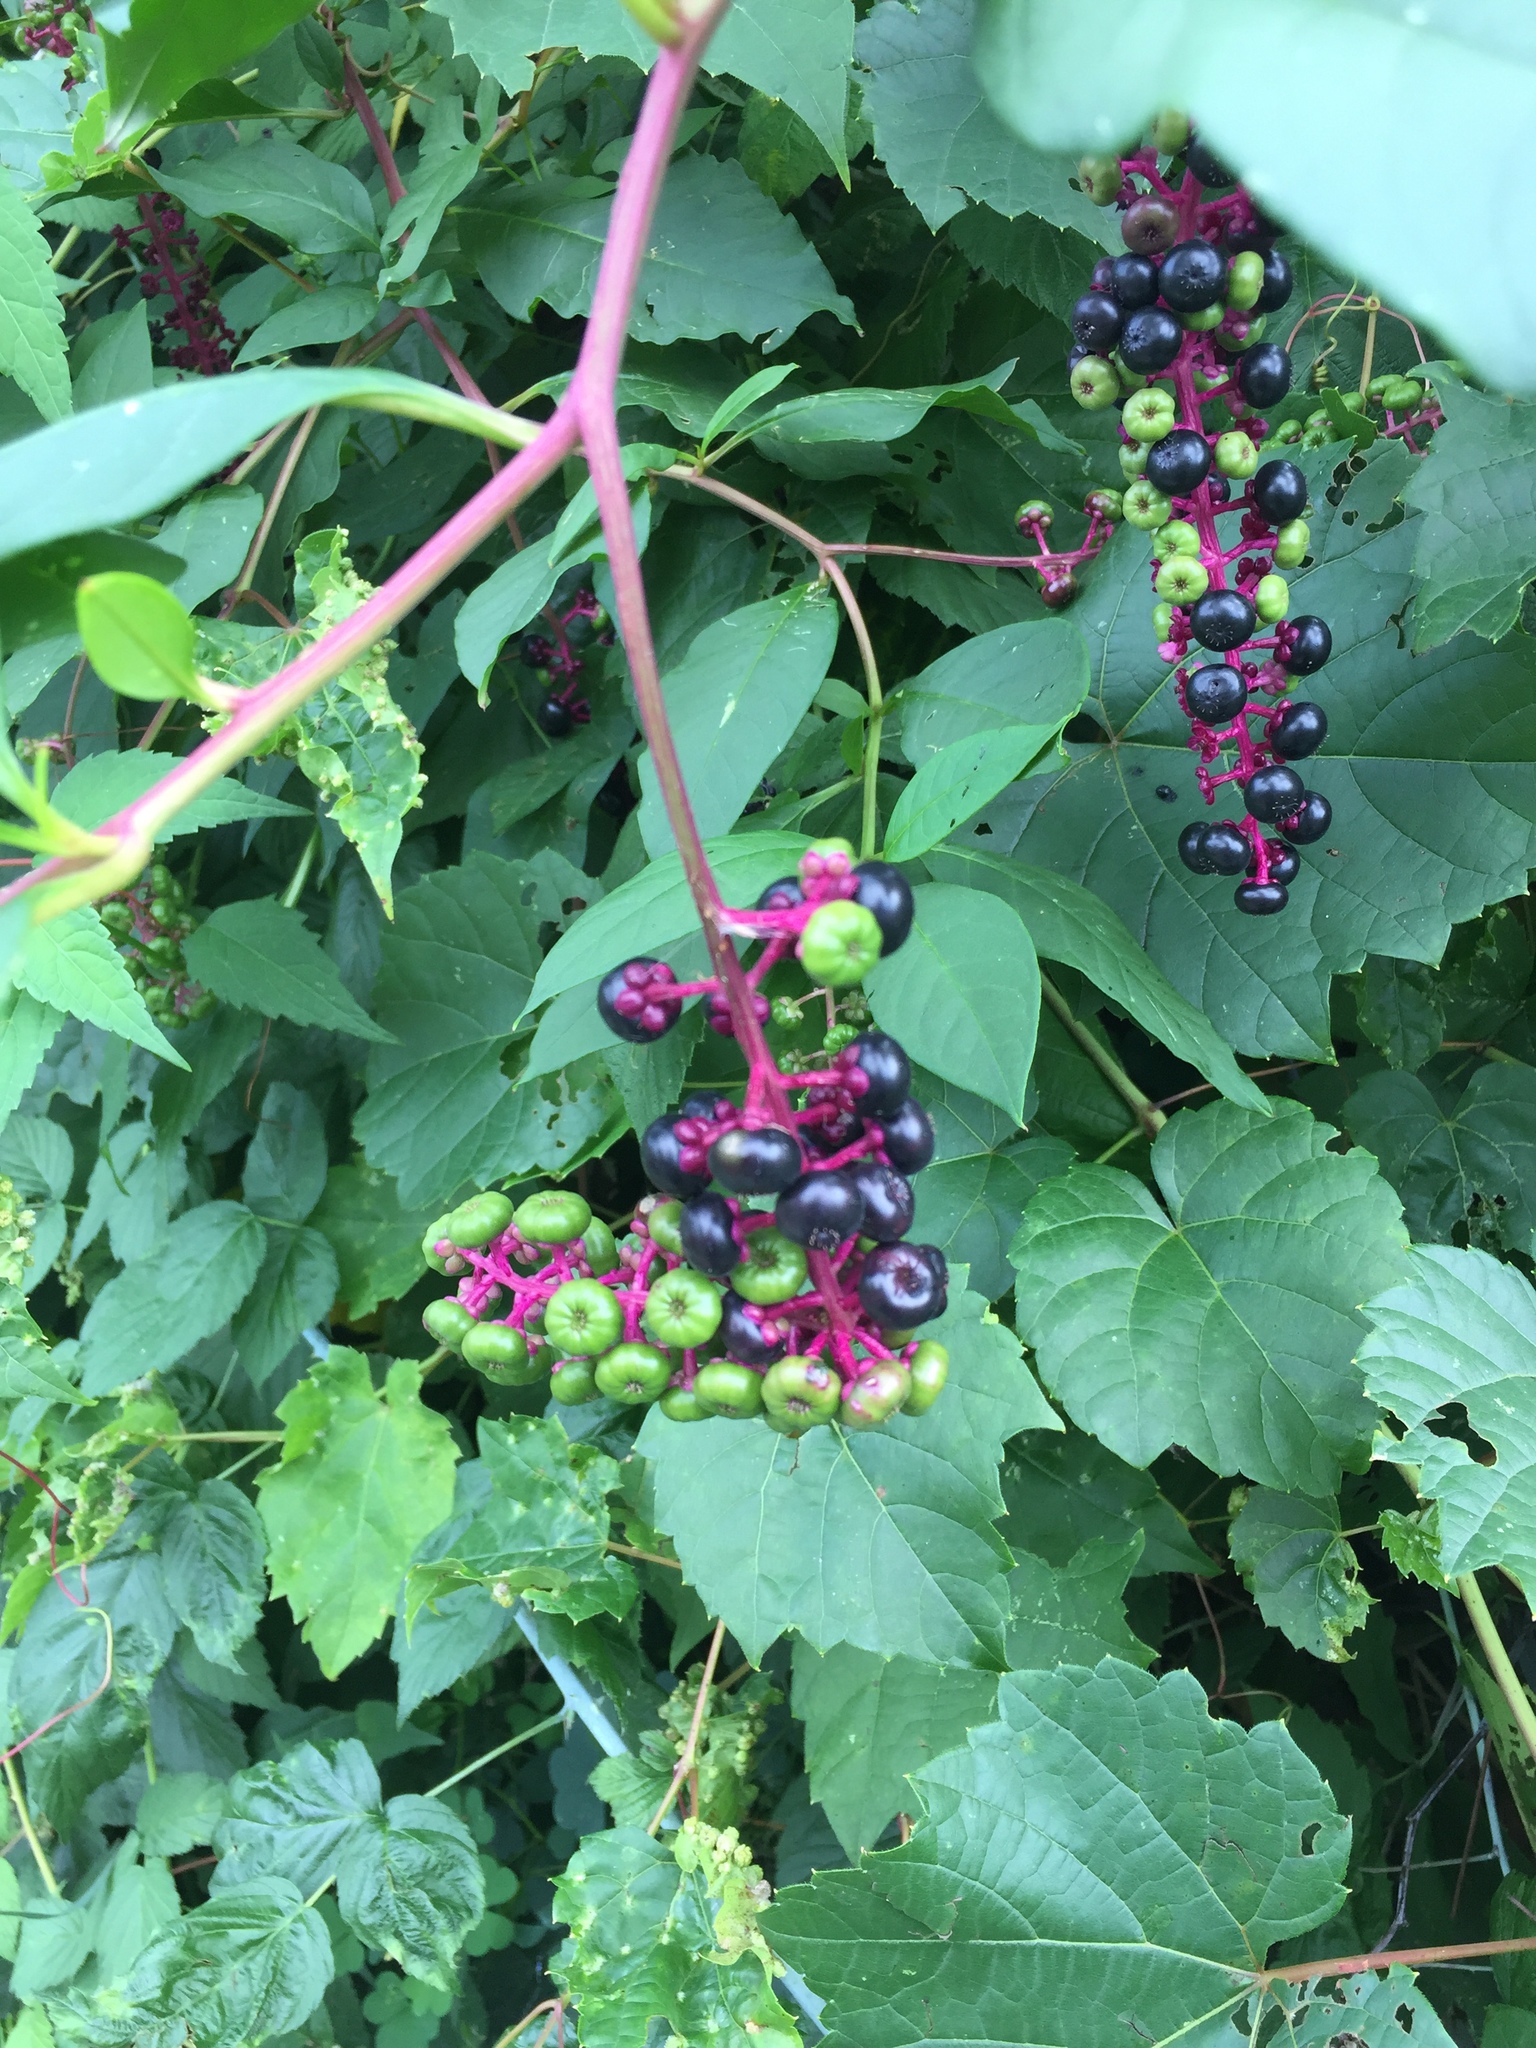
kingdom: Plantae
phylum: Tracheophyta
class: Magnoliopsida
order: Caryophyllales
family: Phytolaccaceae
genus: Phytolacca
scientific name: Phytolacca americana
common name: American pokeweed
